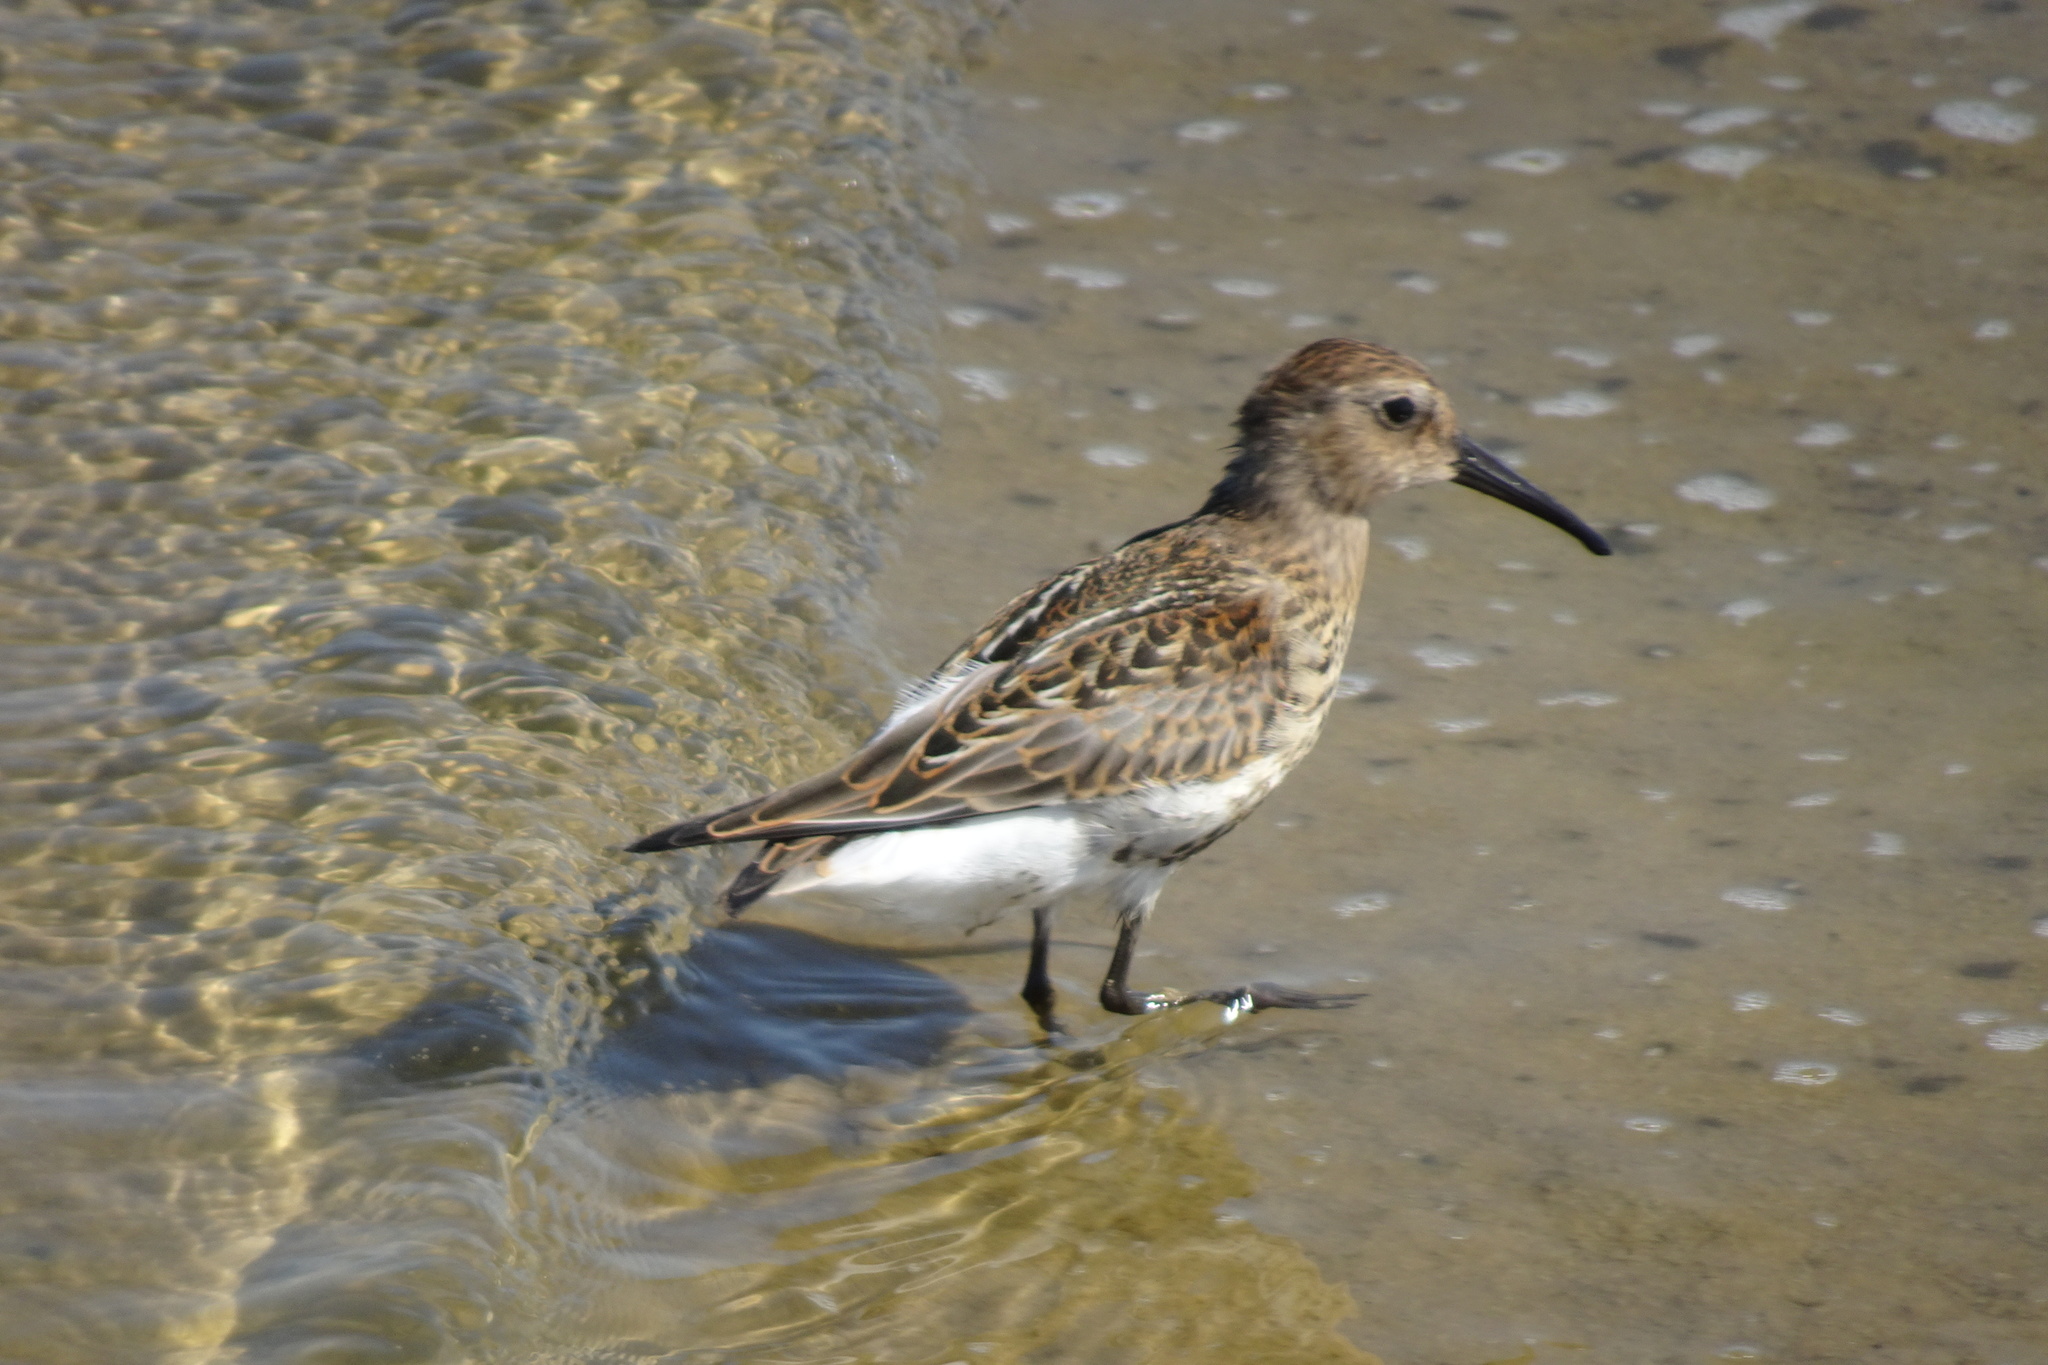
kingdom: Animalia
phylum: Chordata
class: Aves
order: Charadriiformes
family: Scolopacidae
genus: Calidris
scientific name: Calidris alpina
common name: Dunlin
